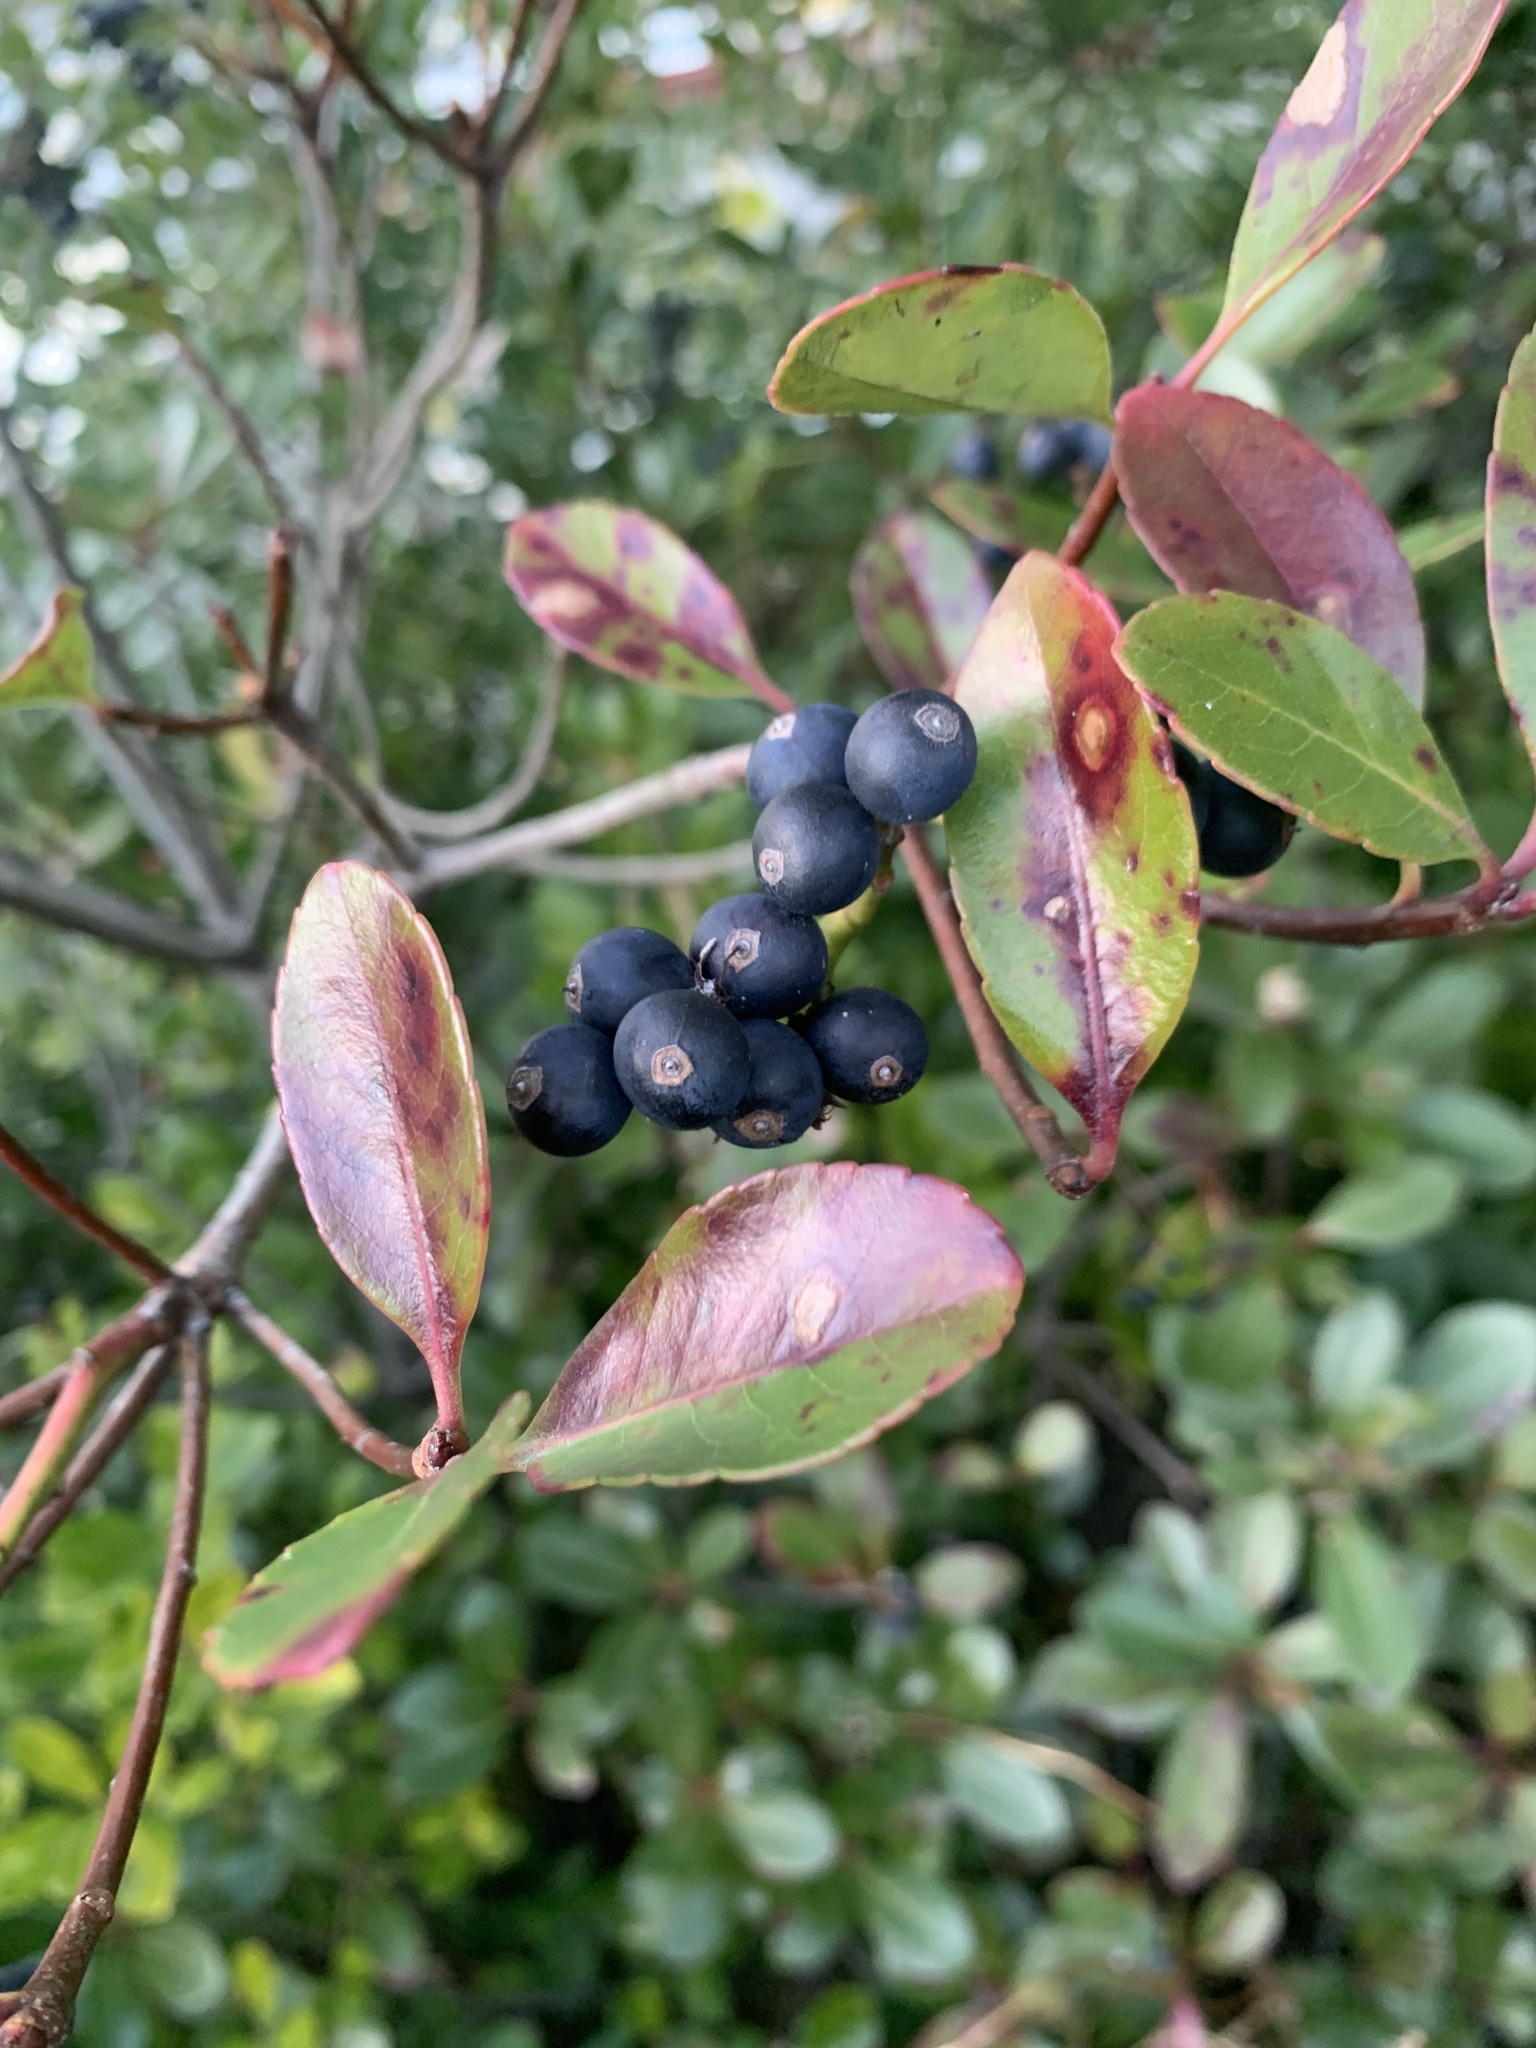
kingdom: Plantae
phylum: Tracheophyta
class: Magnoliopsida
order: Rosales
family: Rosaceae
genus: Rhaphiolepis
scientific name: Rhaphiolepis umbellata
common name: Yedda-hawthorn
